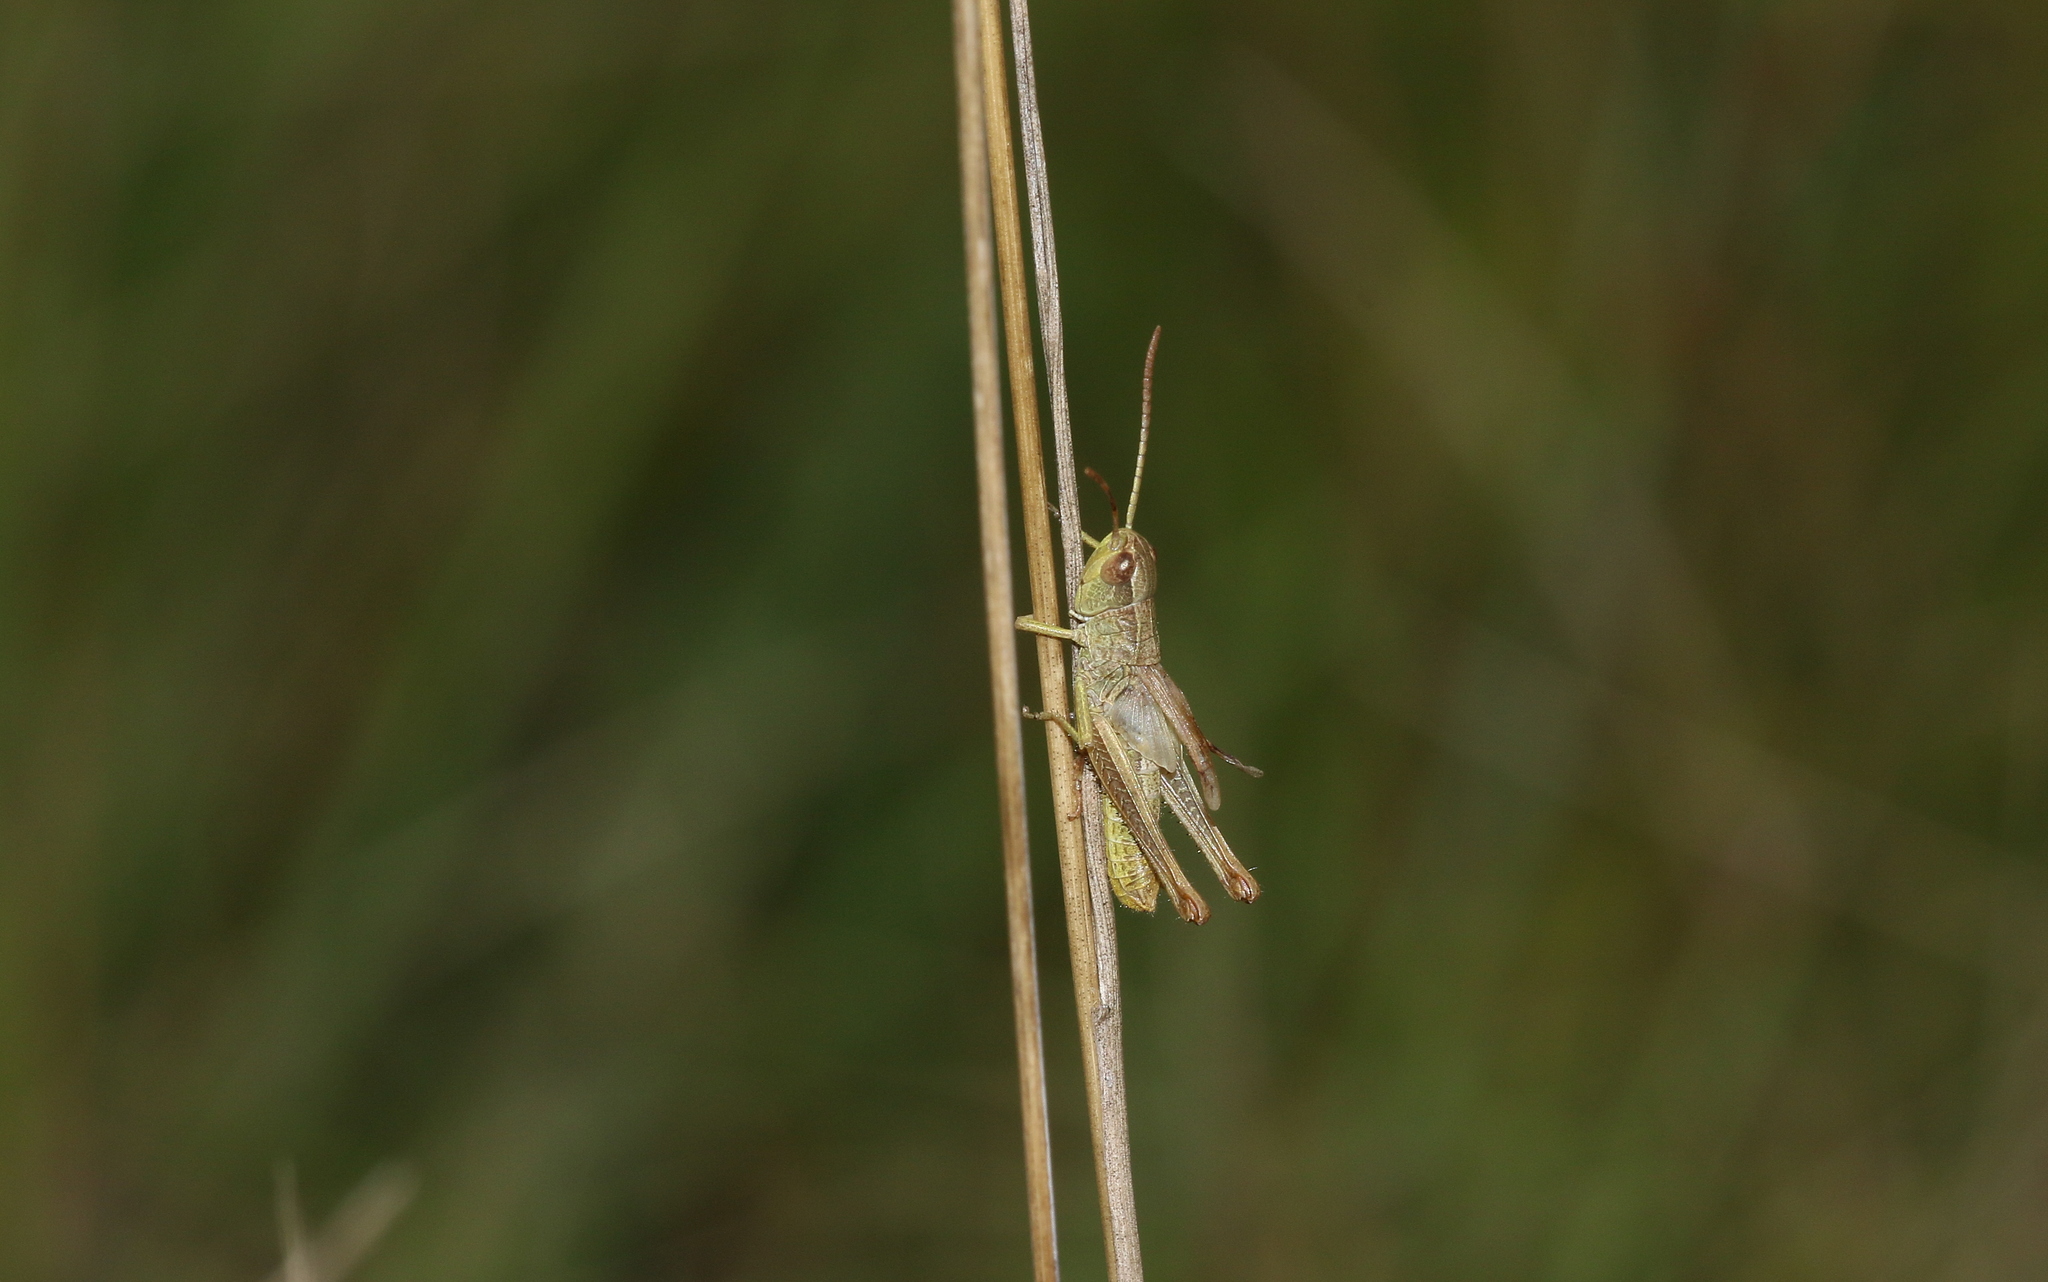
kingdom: Animalia
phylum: Arthropoda
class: Insecta
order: Orthoptera
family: Acrididae
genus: Pseudochorthippus
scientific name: Pseudochorthippus parallelus
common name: Meadow grasshopper
